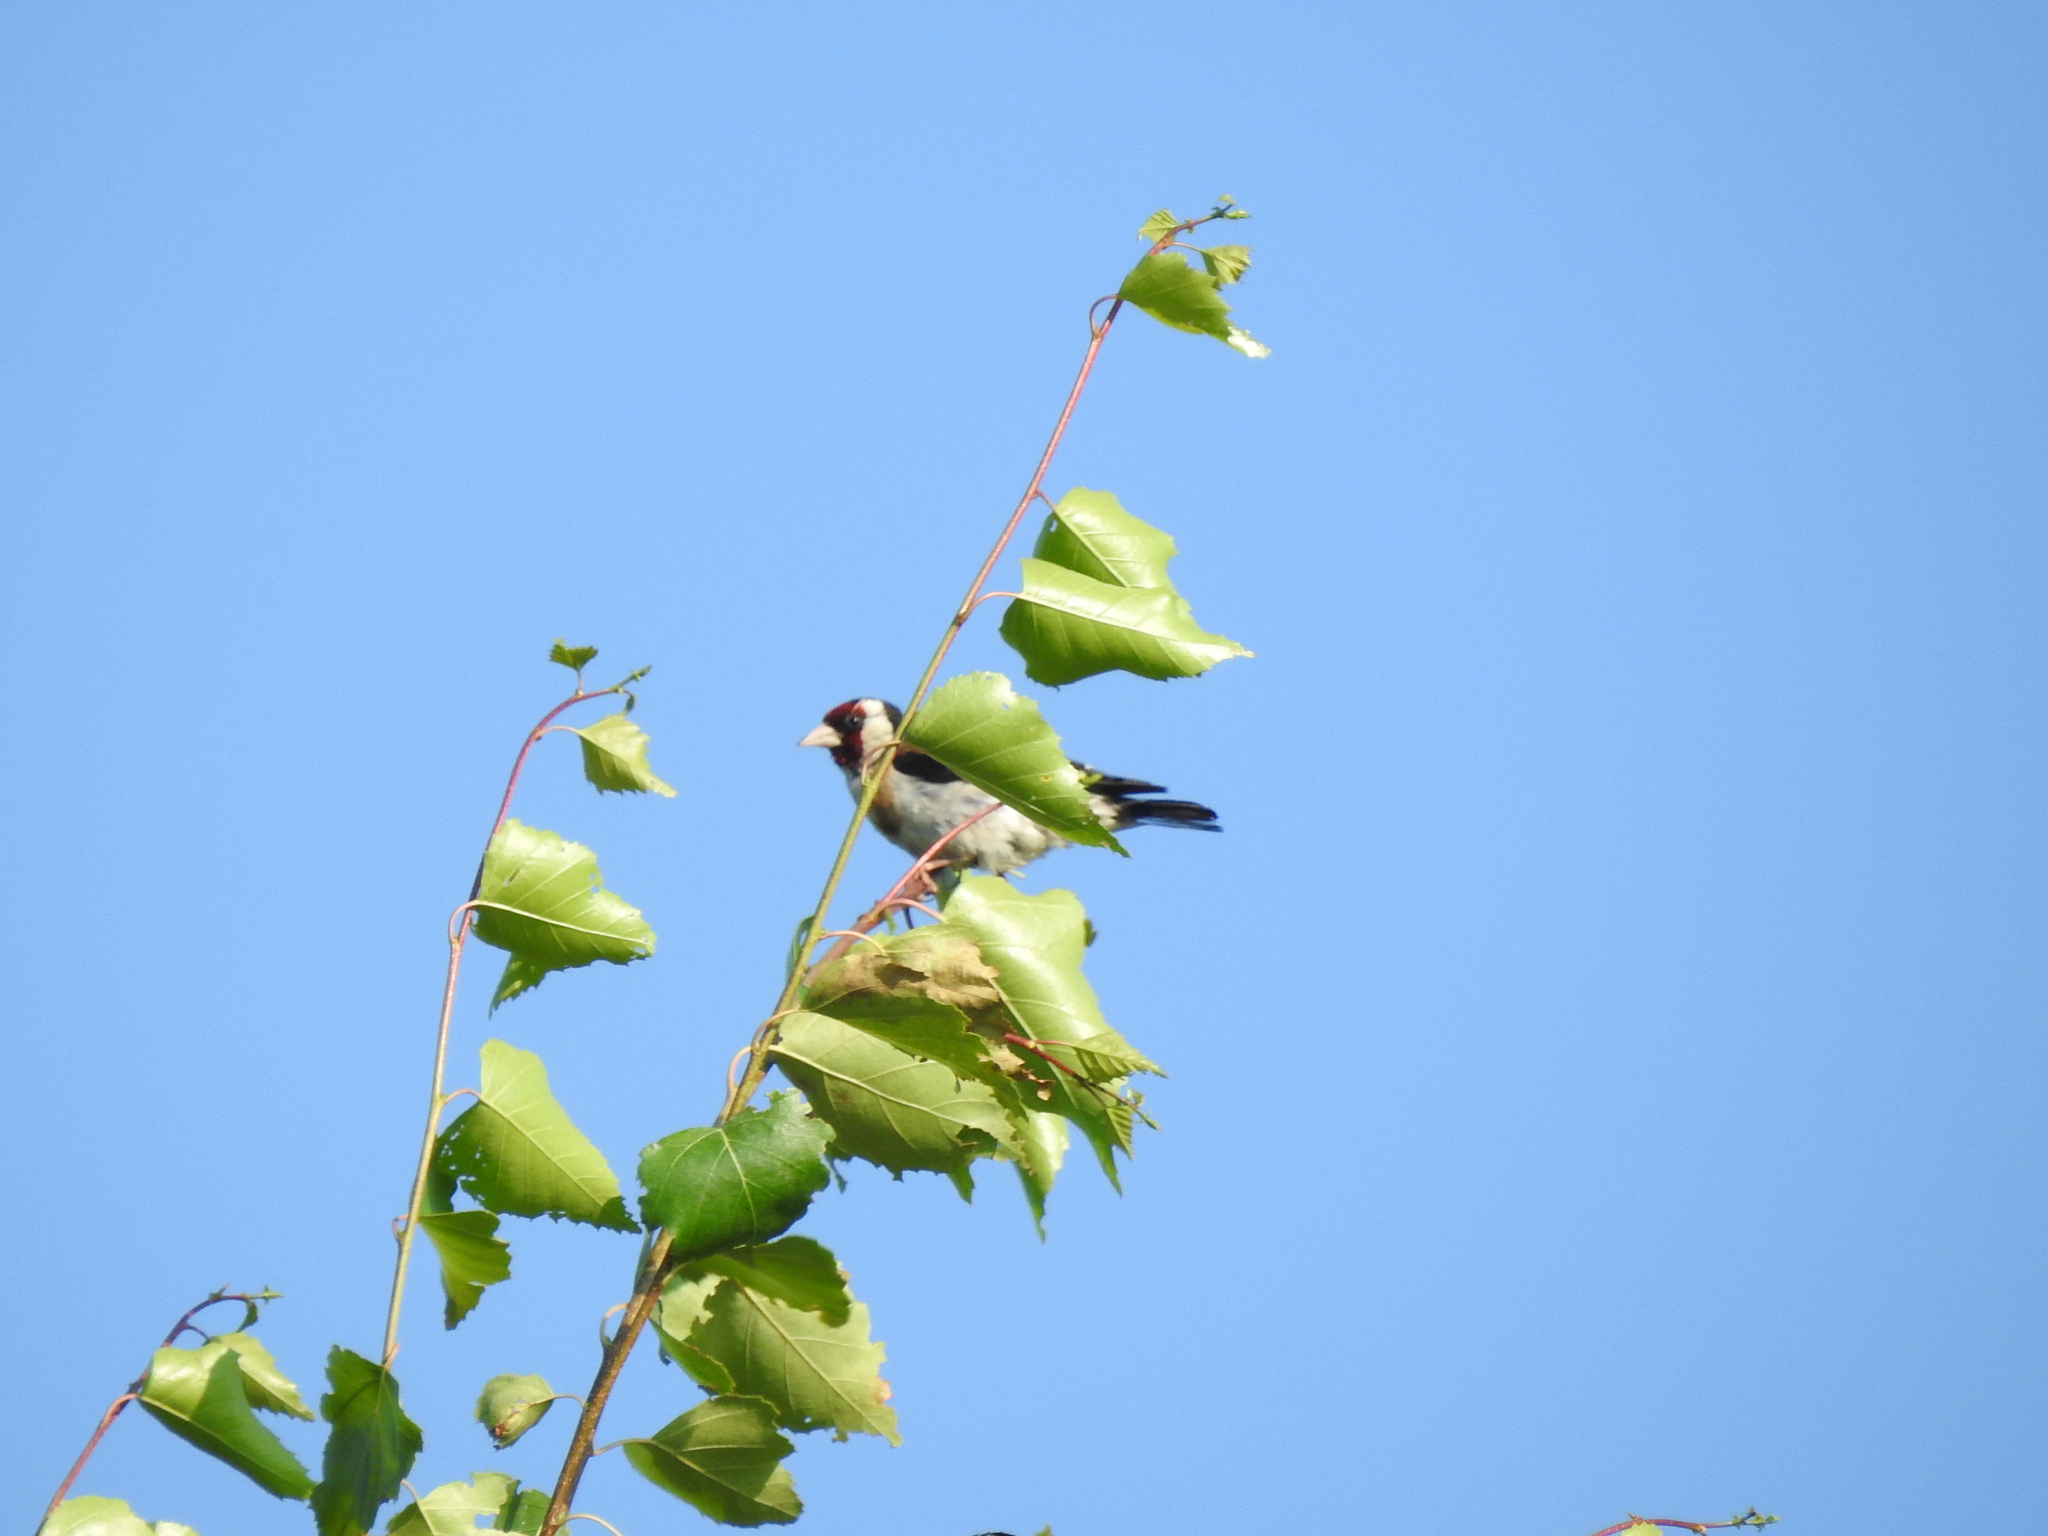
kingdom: Animalia
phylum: Chordata
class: Aves
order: Passeriformes
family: Fringillidae
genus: Carduelis
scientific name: Carduelis carduelis
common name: European goldfinch
